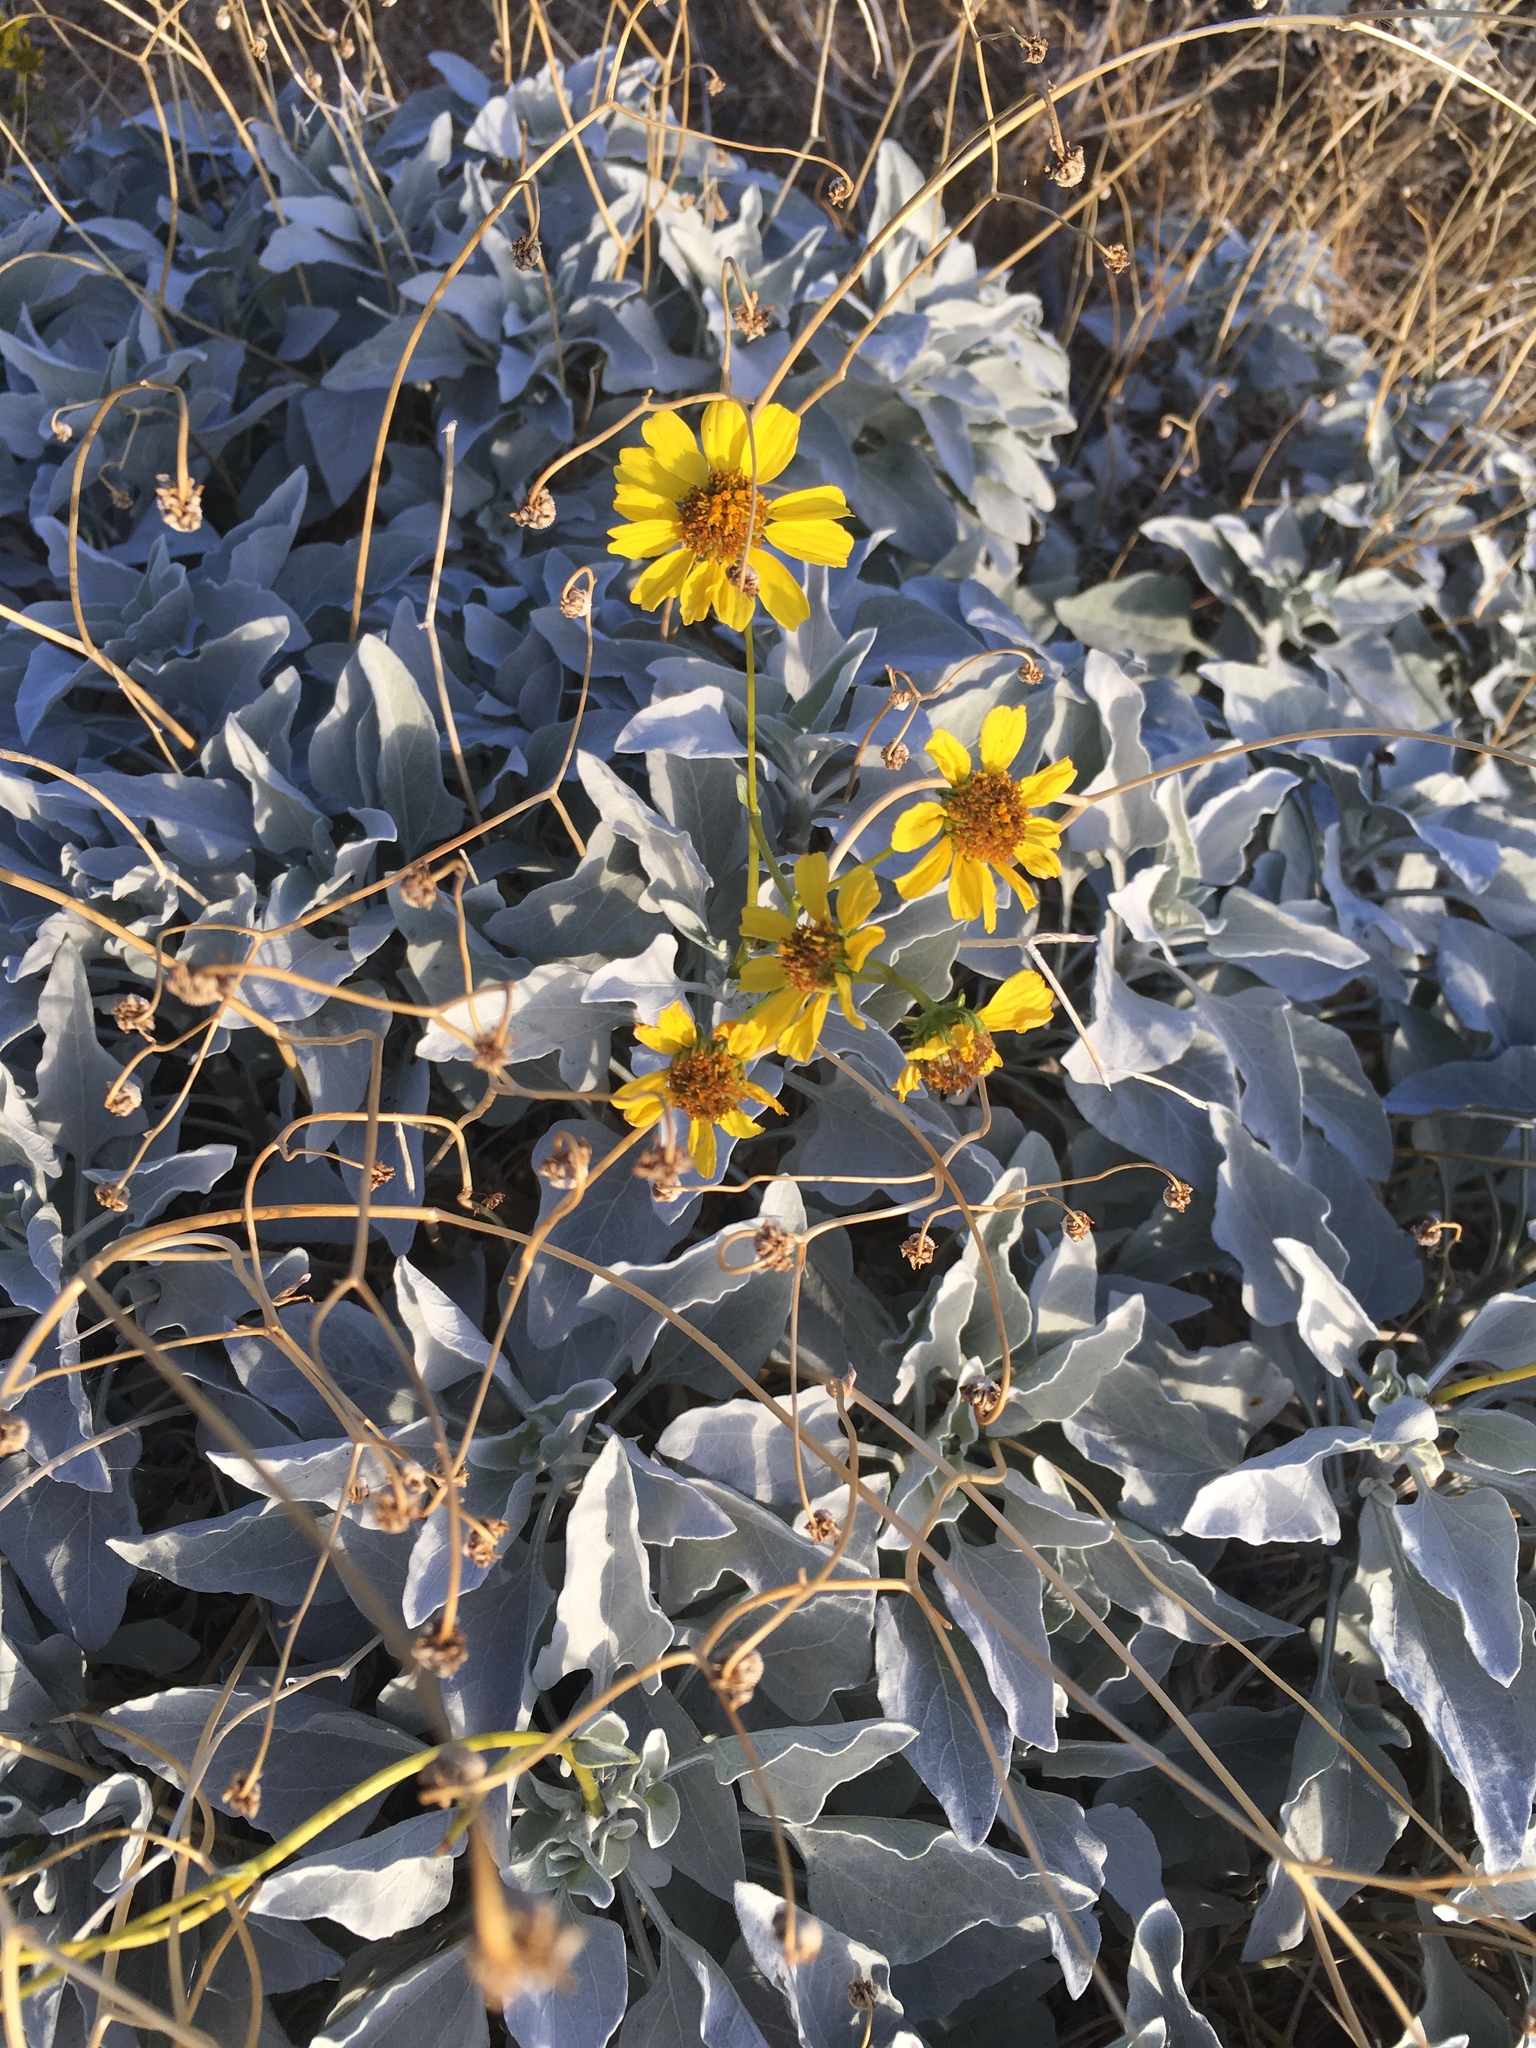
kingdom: Plantae
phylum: Tracheophyta
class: Magnoliopsida
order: Asterales
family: Asteraceae
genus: Encelia
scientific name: Encelia farinosa
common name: Brittlebush
